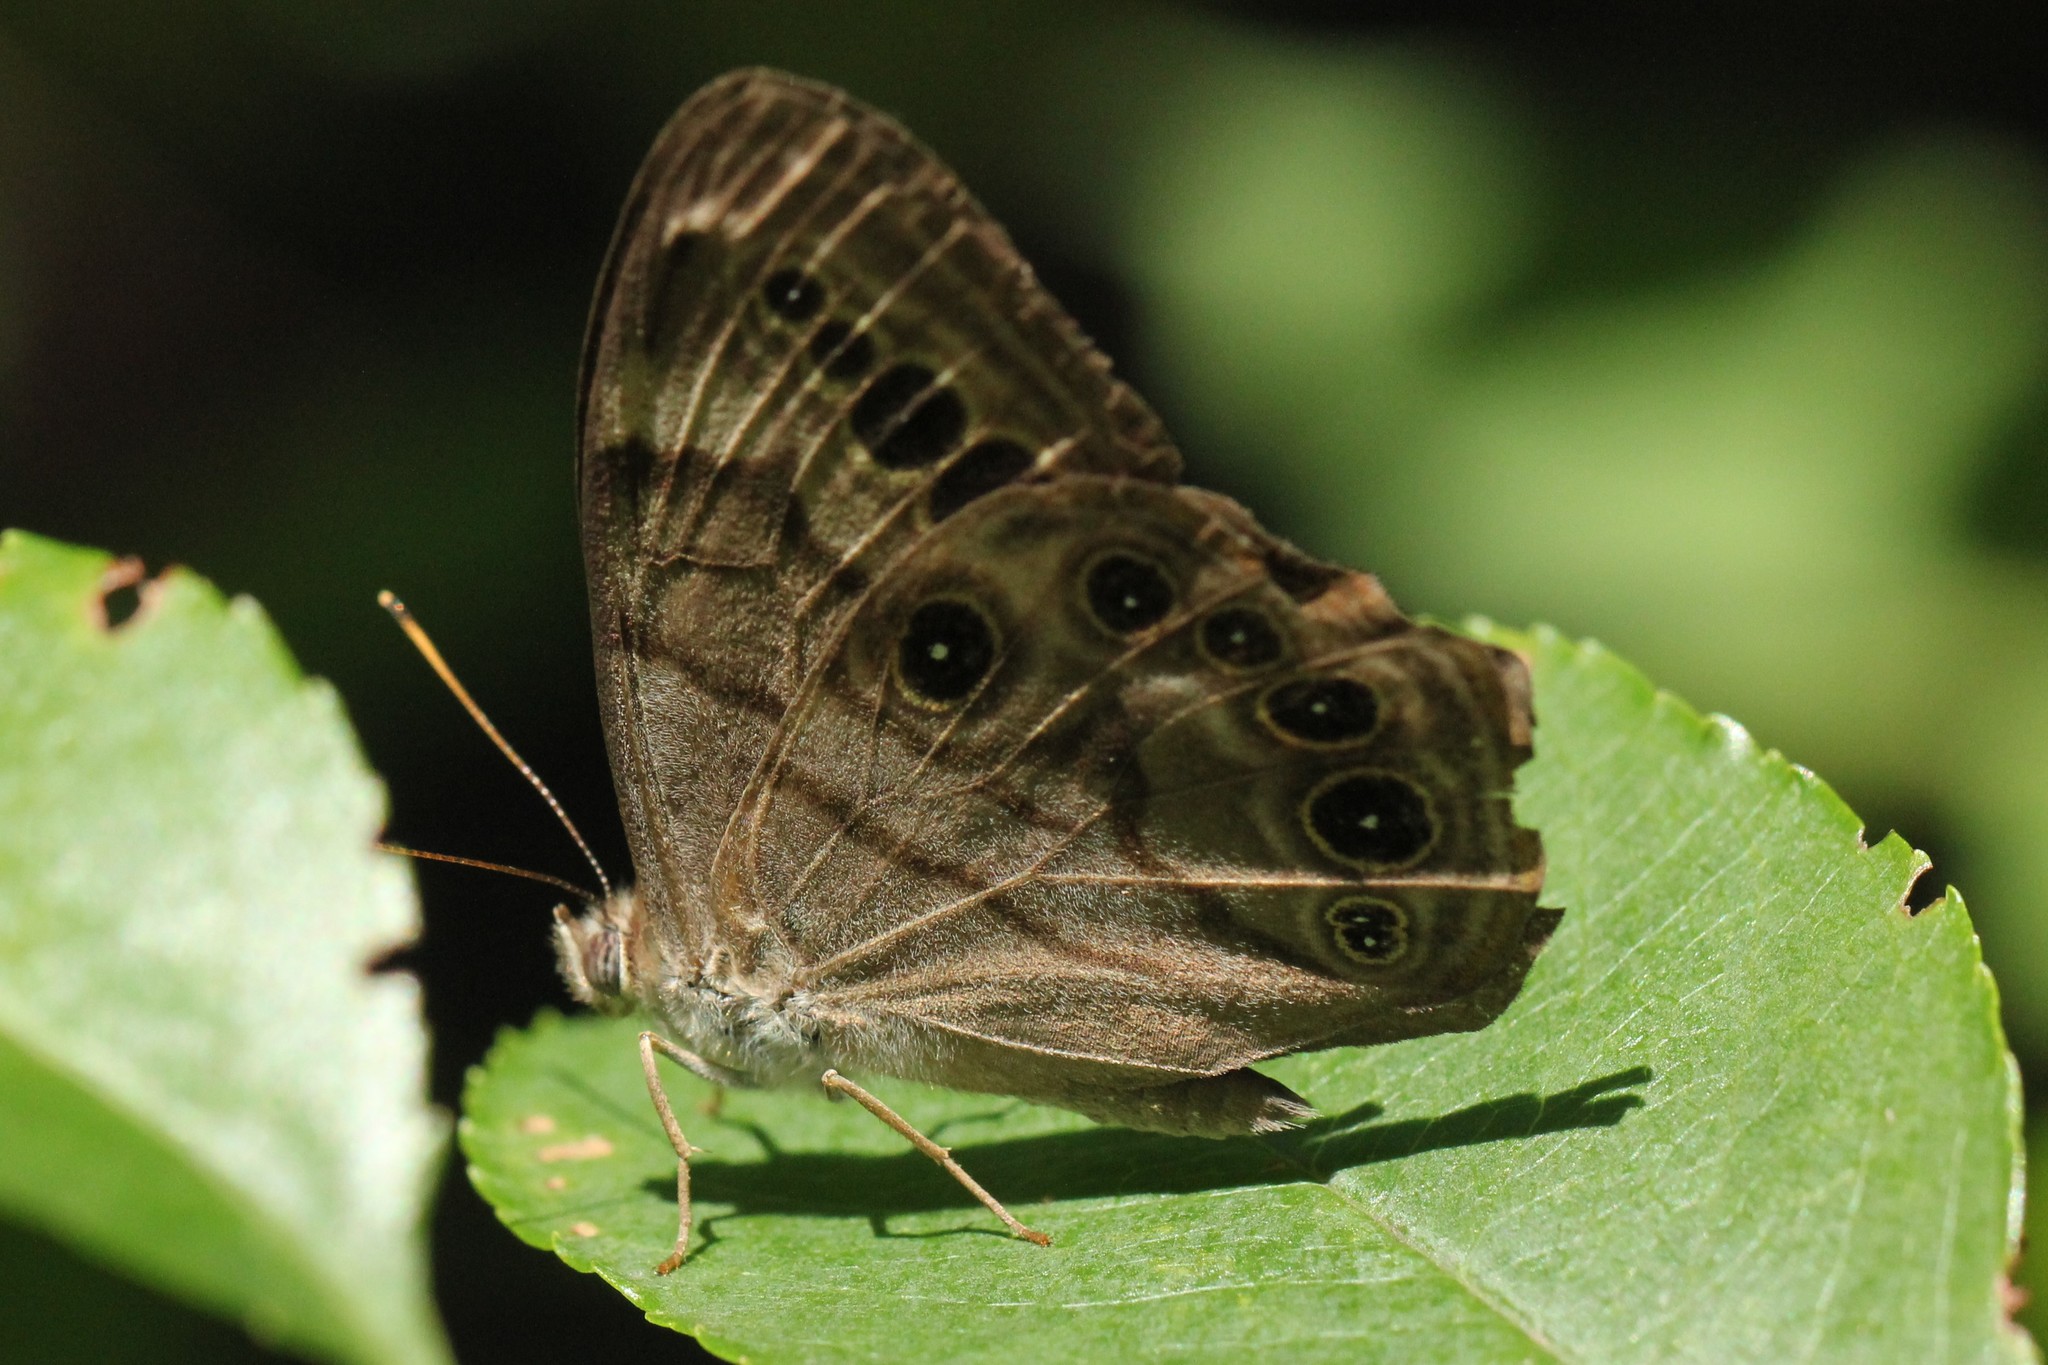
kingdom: Animalia
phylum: Arthropoda
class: Insecta
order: Lepidoptera
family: Nymphalidae
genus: Lethe
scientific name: Lethe anthedon
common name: Northern pearly-eye
